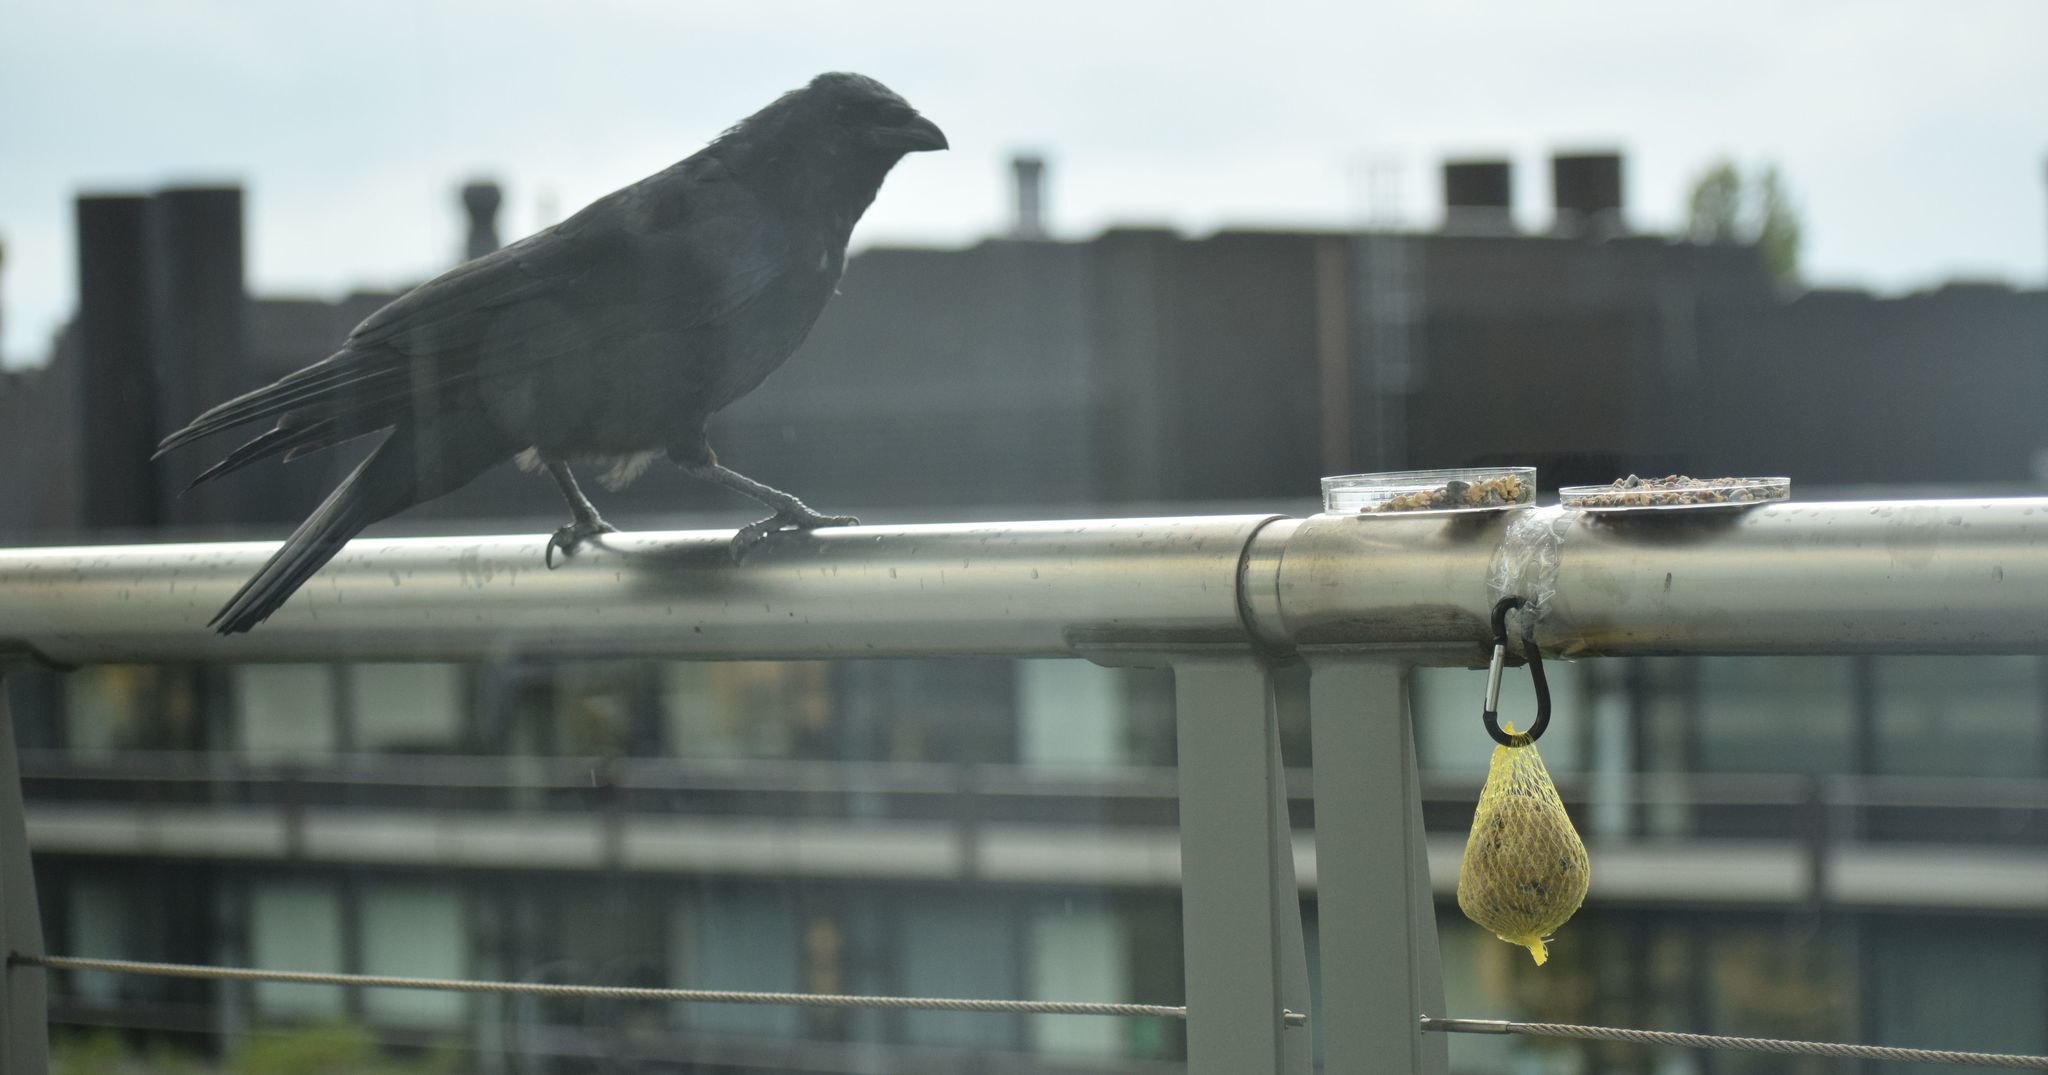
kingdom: Animalia
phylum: Chordata
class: Aves
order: Passeriformes
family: Corvidae
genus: Corvus
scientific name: Corvus corone
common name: Carrion crow
